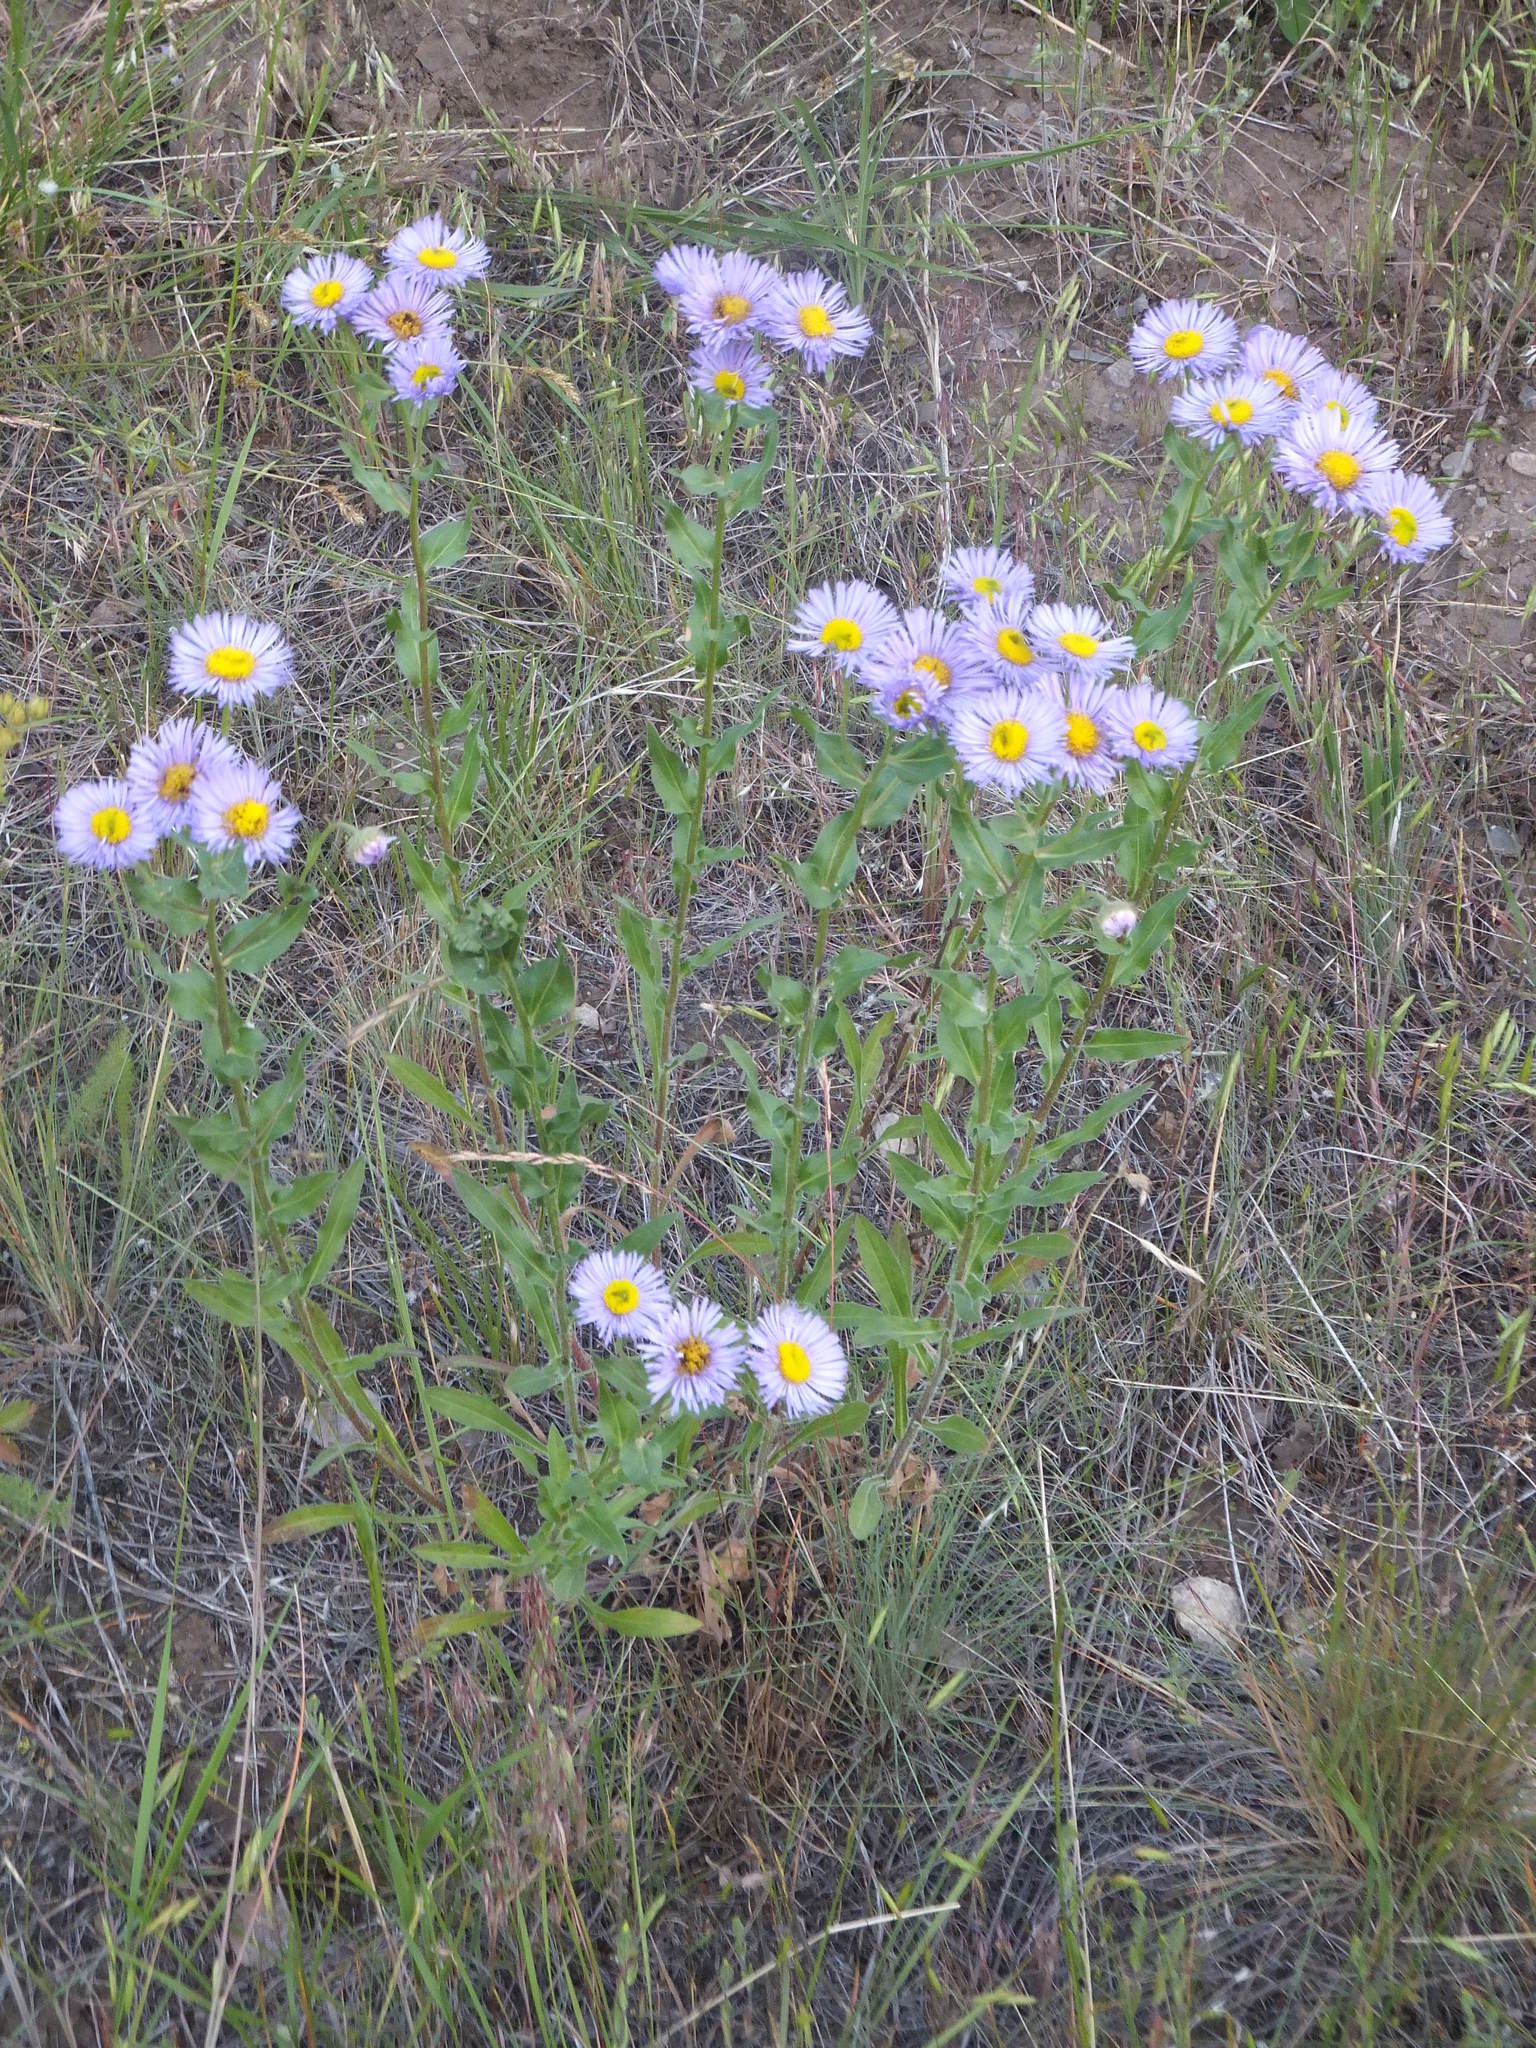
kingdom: Plantae
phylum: Tracheophyta
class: Magnoliopsida
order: Asterales
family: Asteraceae
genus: Erigeron
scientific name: Erigeron speciosus
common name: Aspen fleabane
